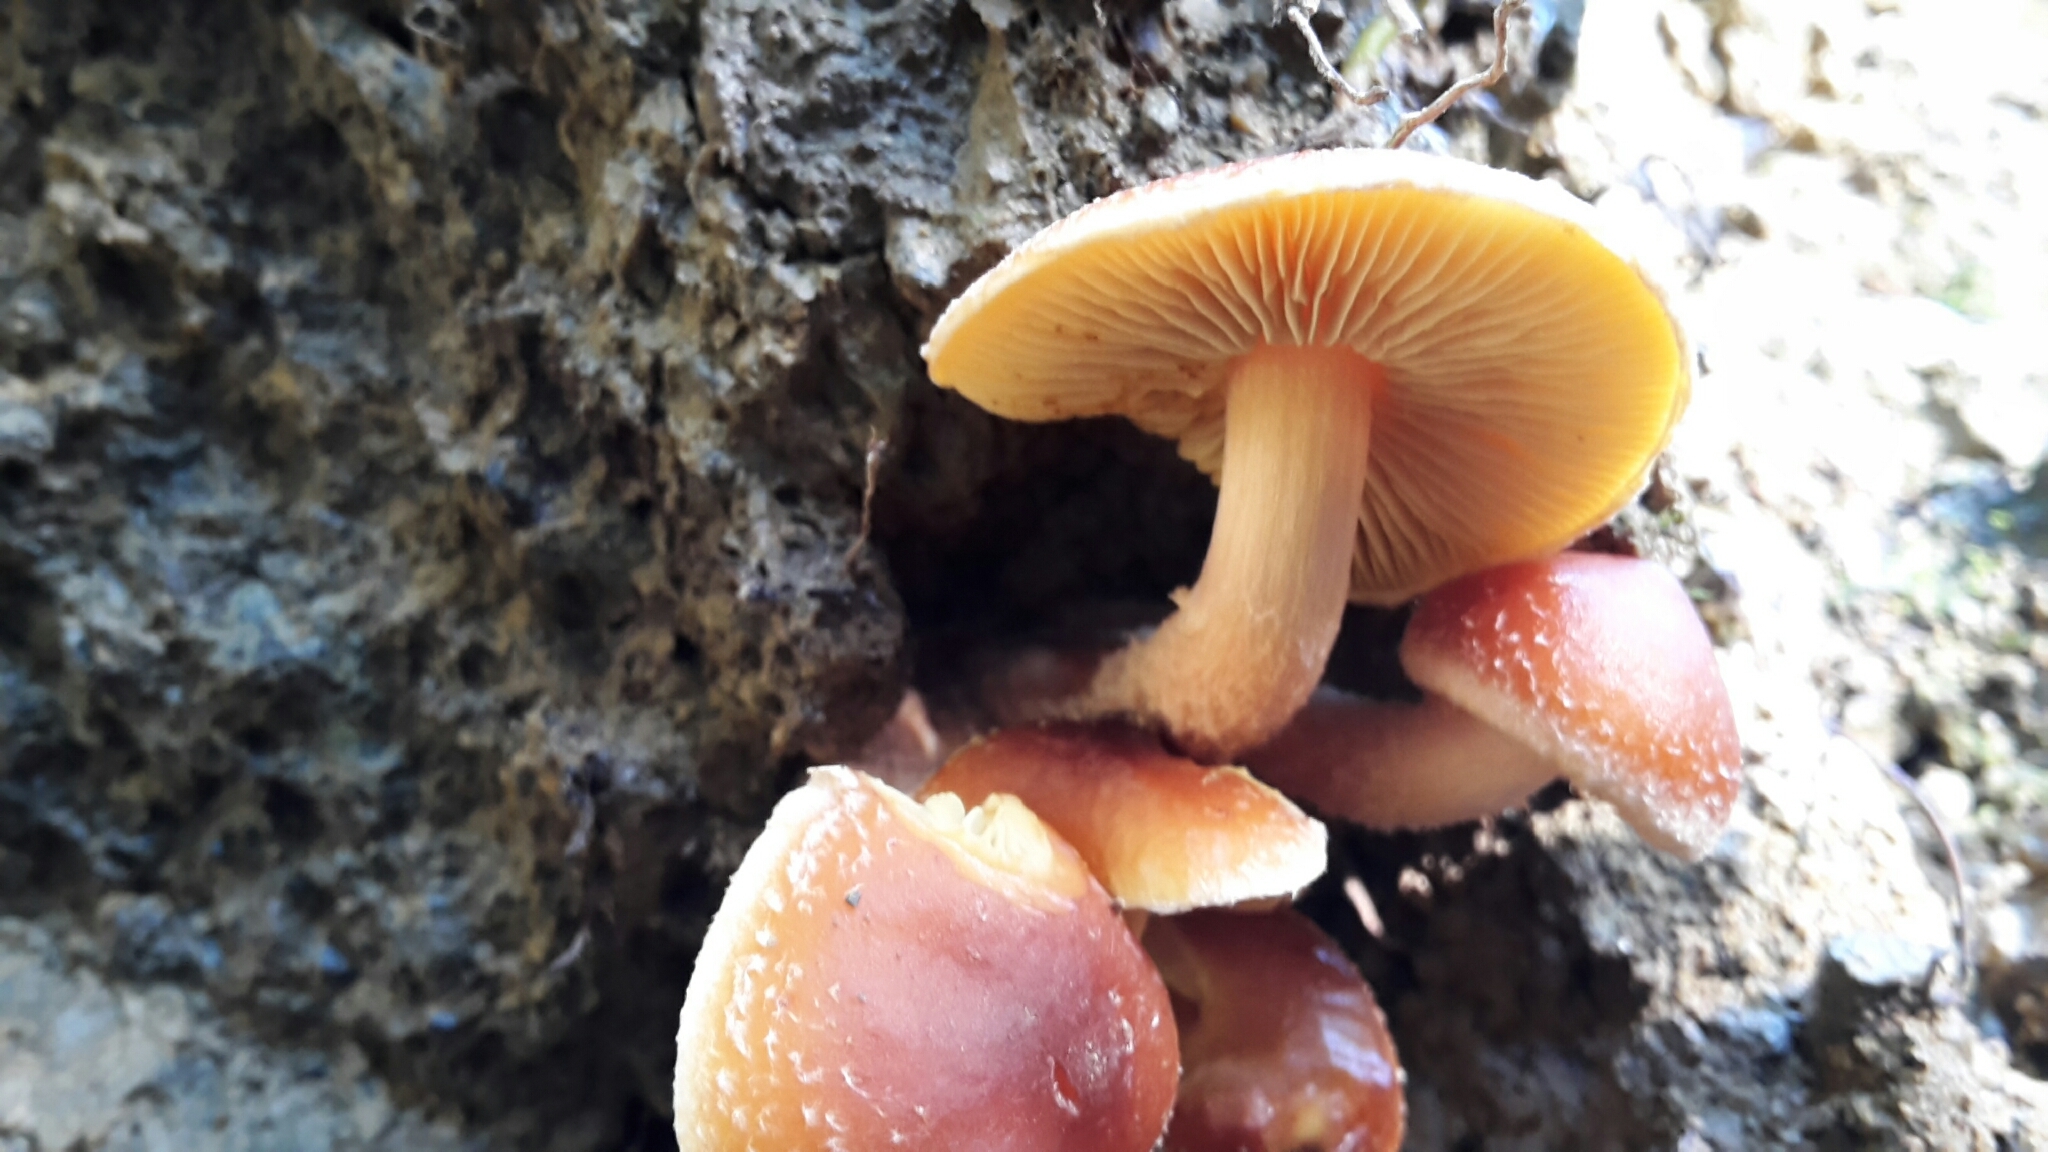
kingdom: Fungi
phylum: Basidiomycota
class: Agaricomycetes
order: Agaricales
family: Strophariaceae
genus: Hypholoma
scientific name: Hypholoma australianum
